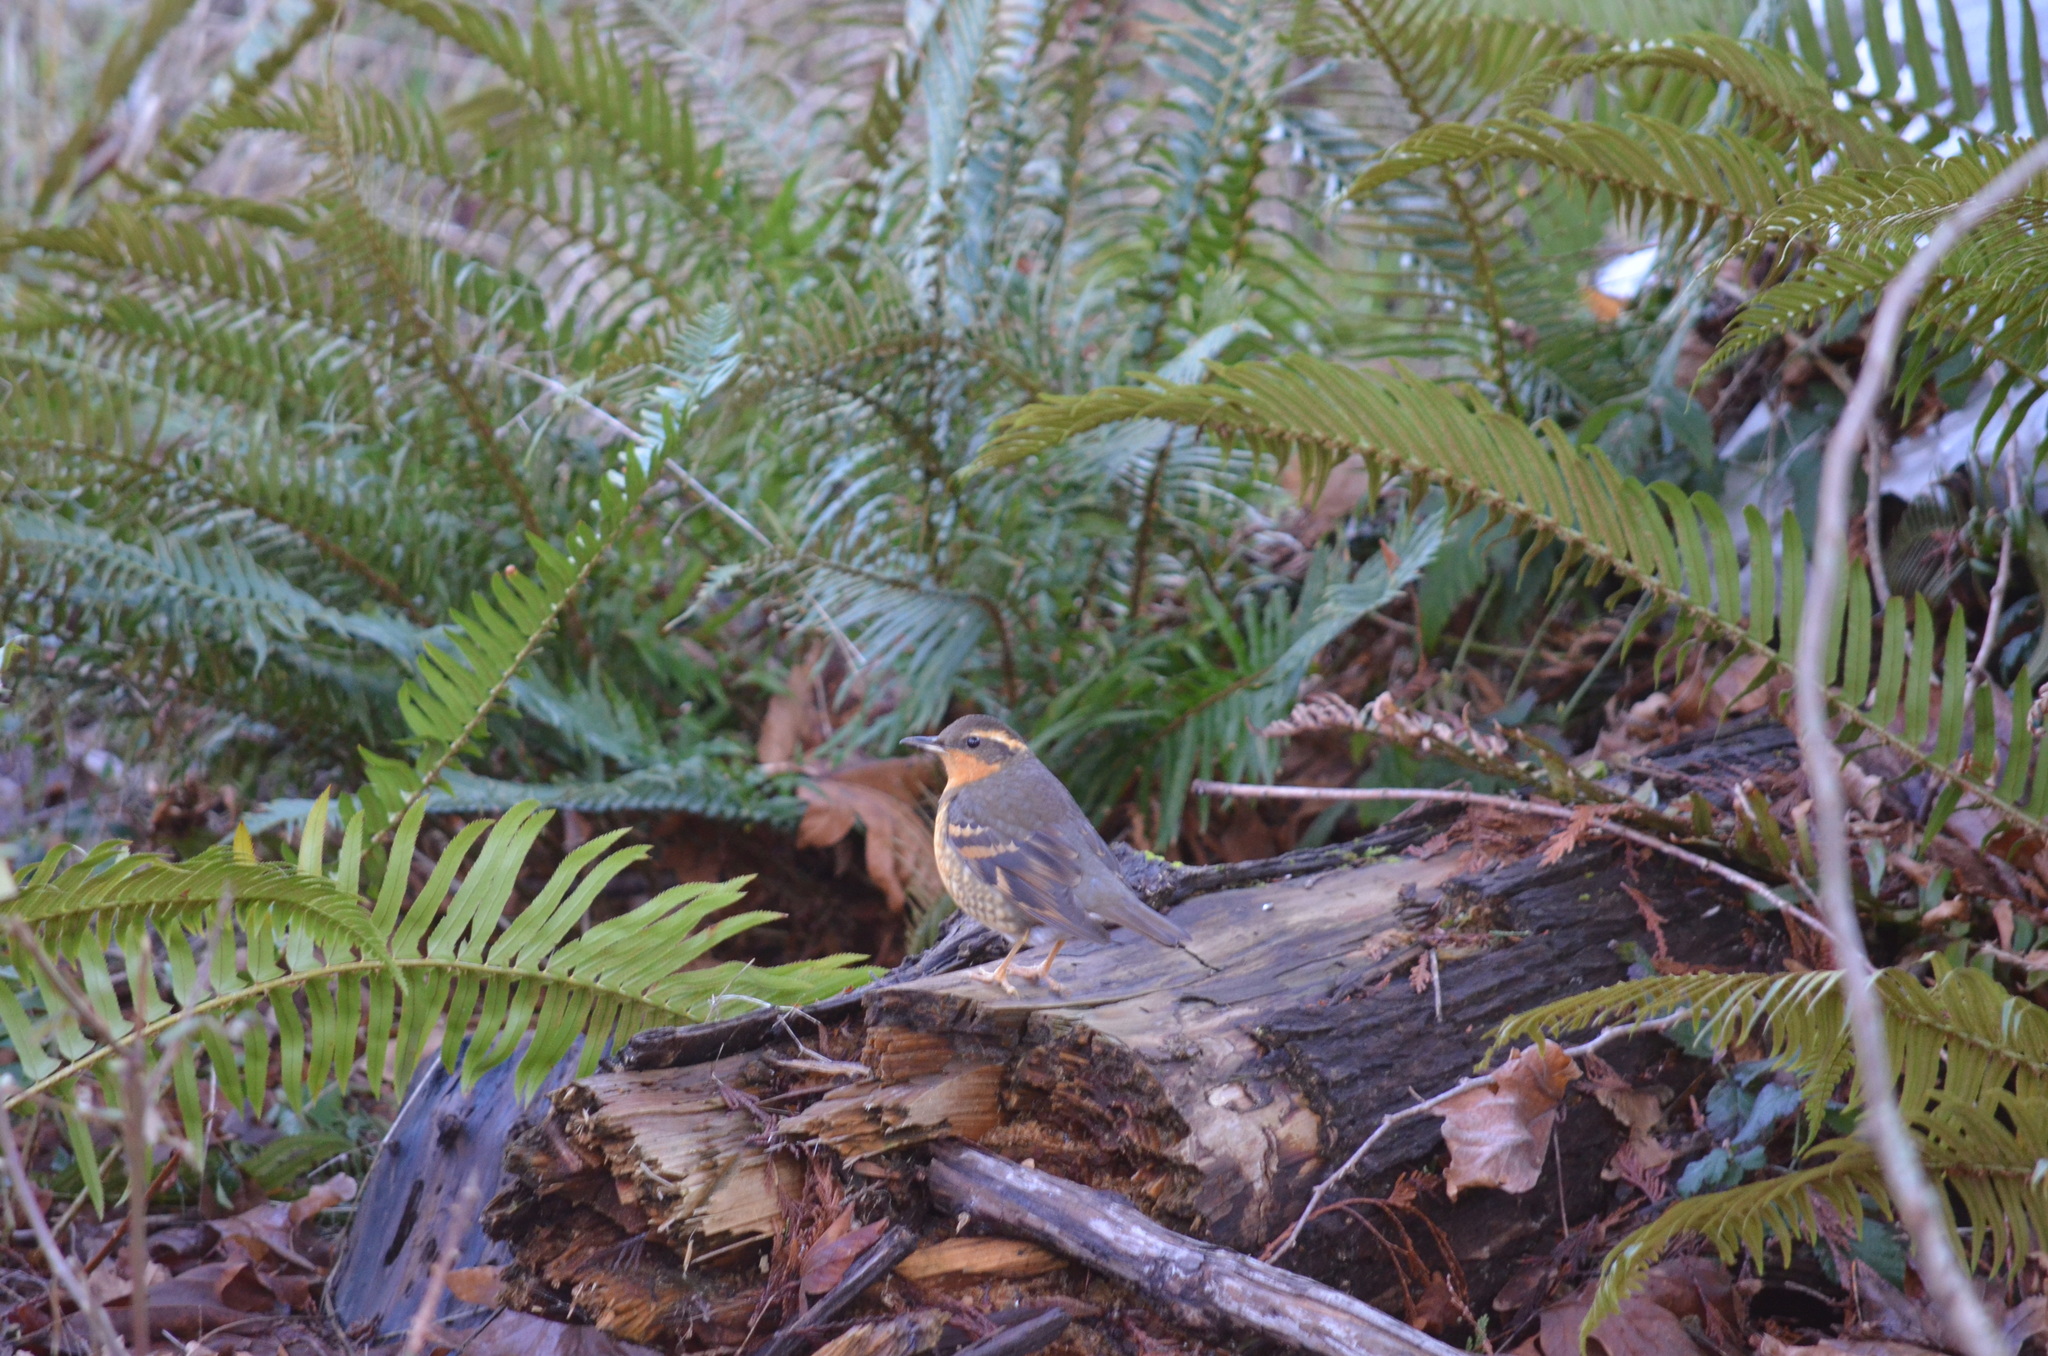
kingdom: Animalia
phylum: Chordata
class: Aves
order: Passeriformes
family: Turdidae
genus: Ixoreus
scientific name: Ixoreus naevius
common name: Varied thrush
